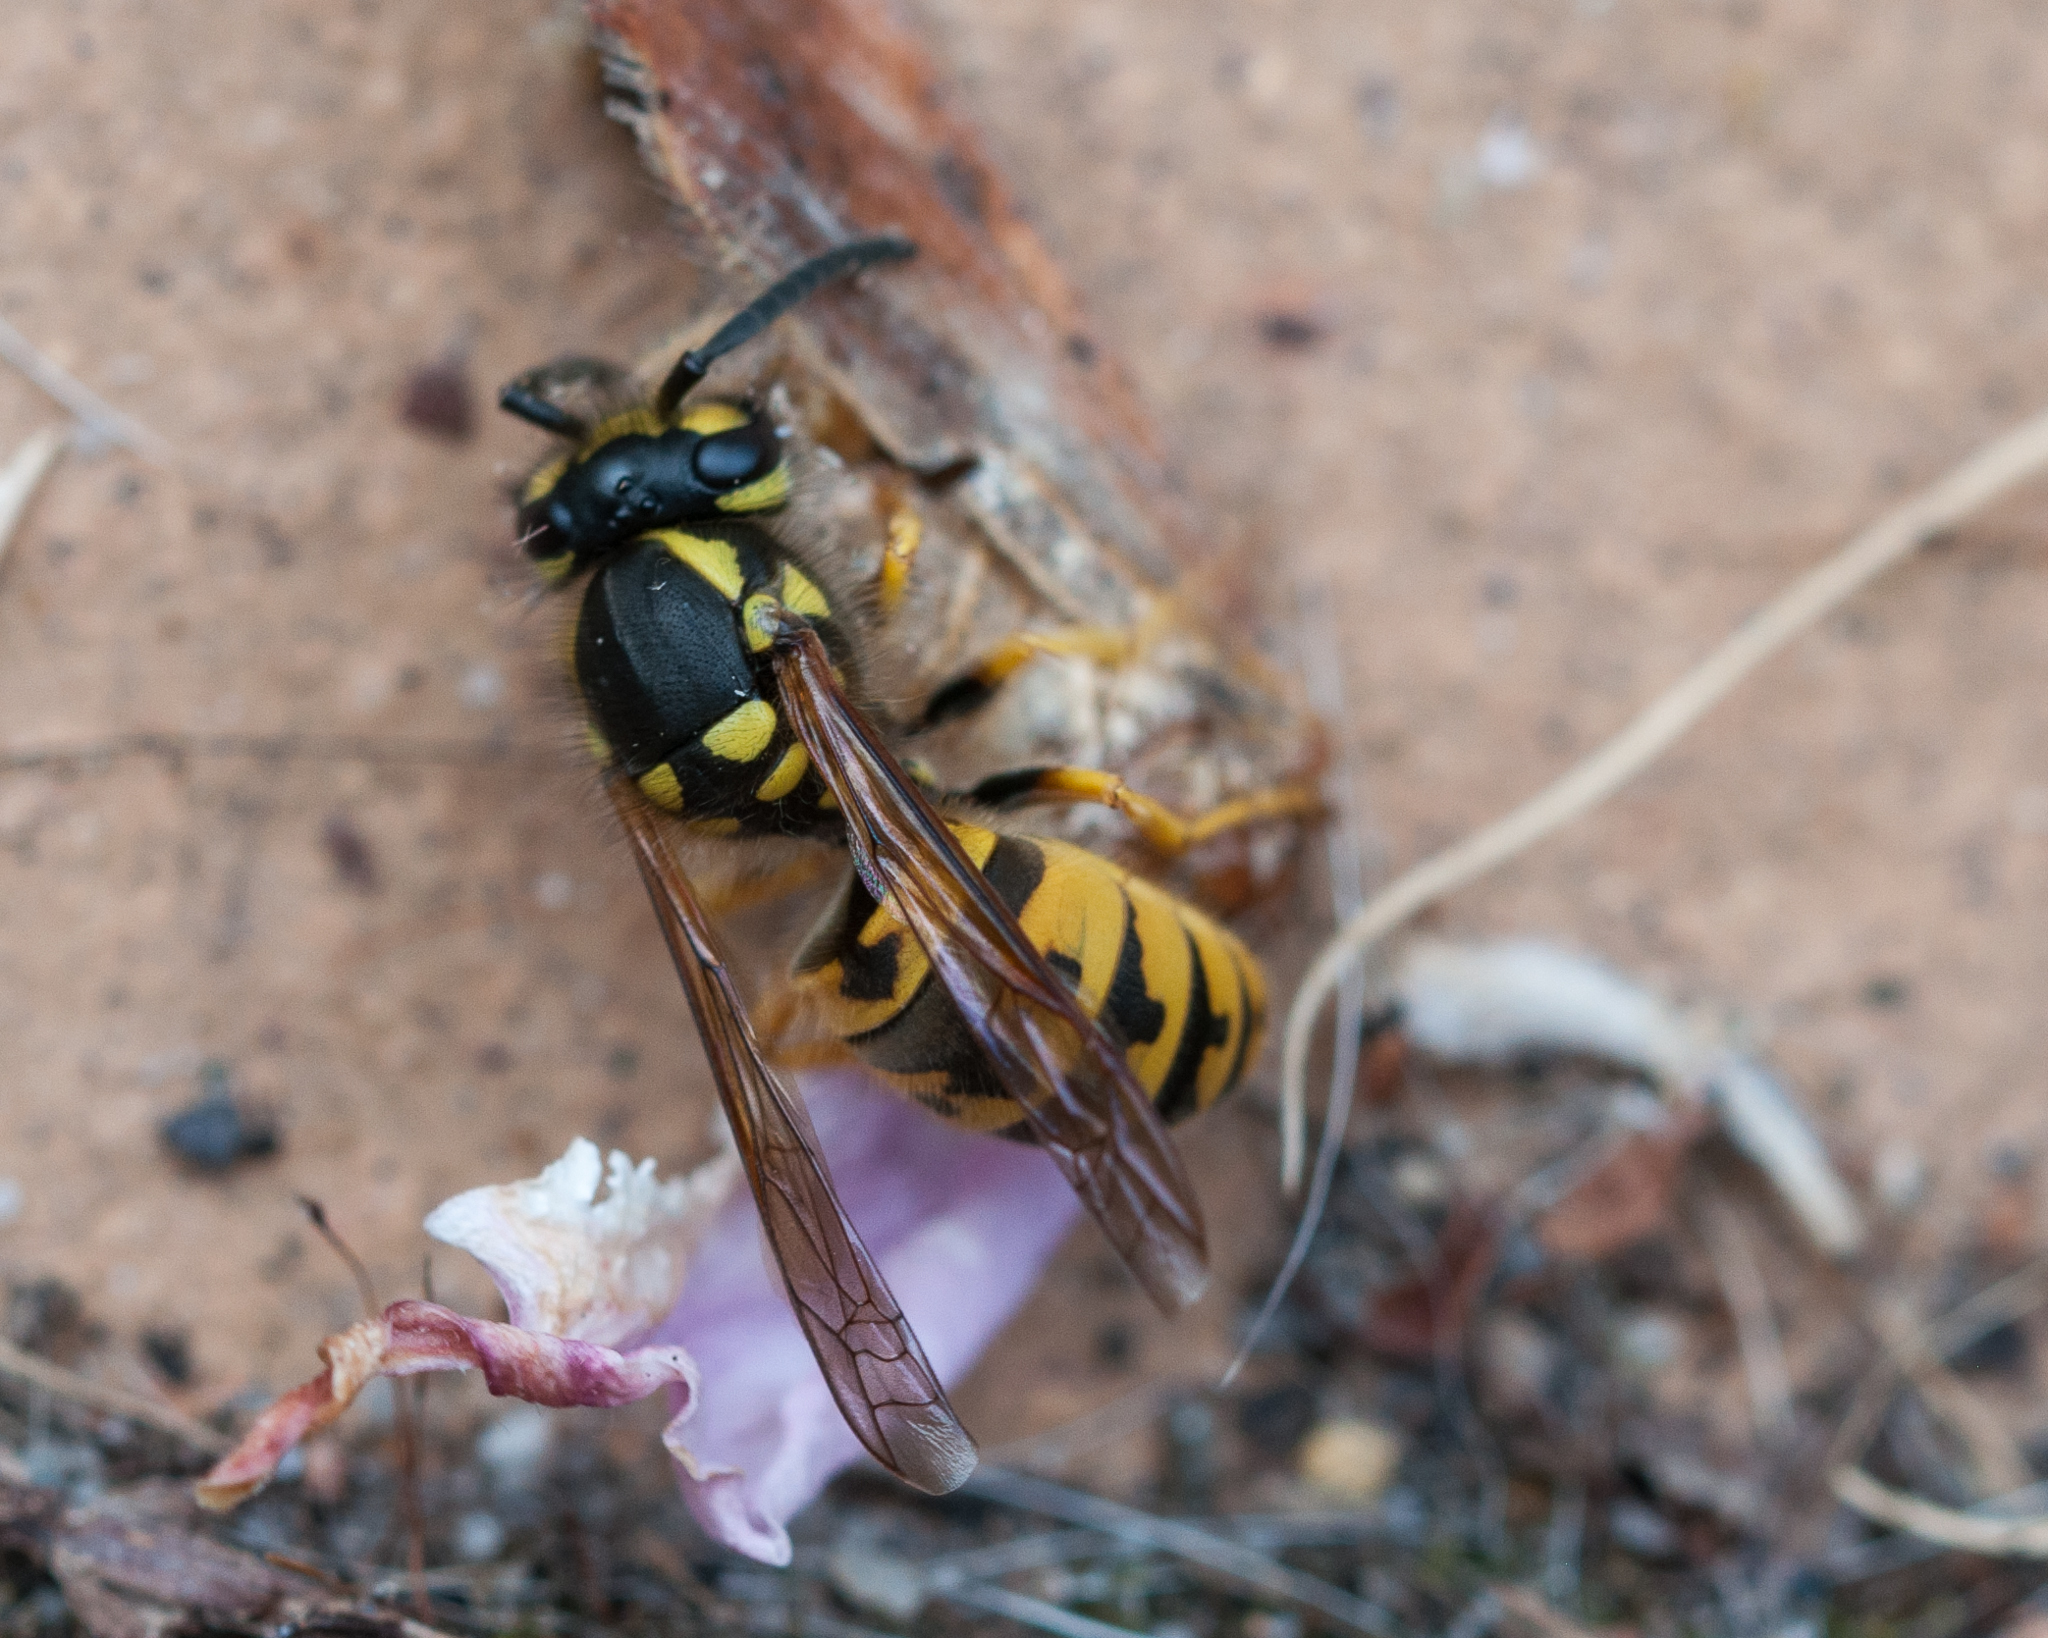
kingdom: Animalia
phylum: Arthropoda
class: Insecta
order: Hymenoptera
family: Vespidae
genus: Vespula
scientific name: Vespula germanica
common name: German wasp
